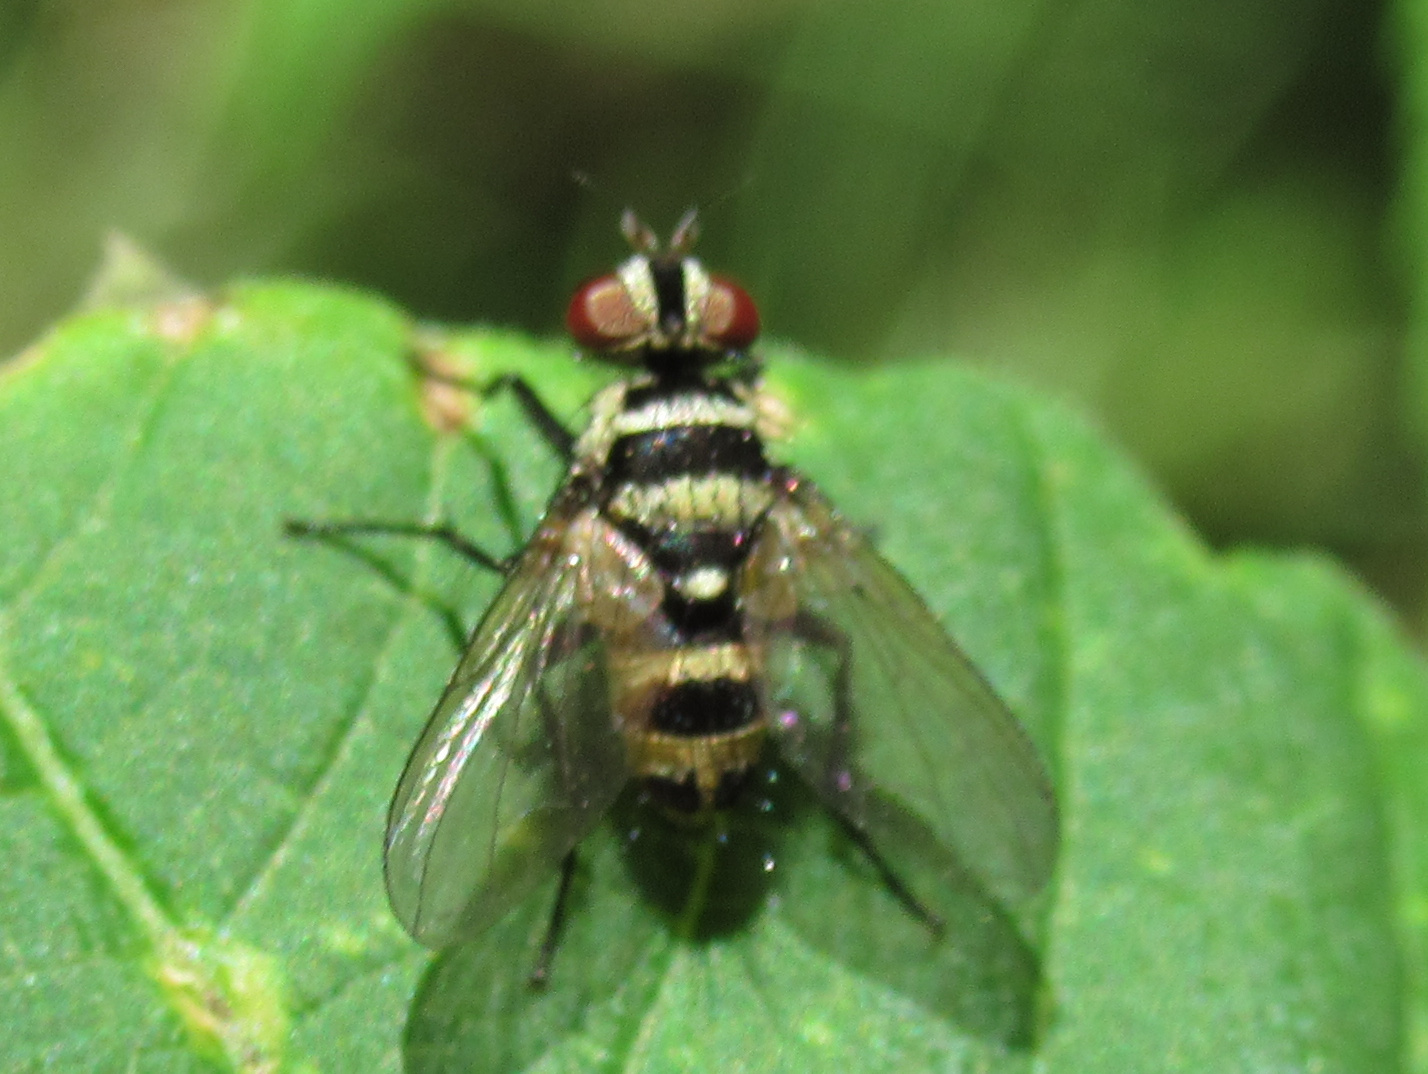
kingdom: Animalia
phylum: Arthropoda
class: Insecta
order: Diptera
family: Tachinidae
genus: Trigonospila
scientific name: Trigonospila brevifacies
